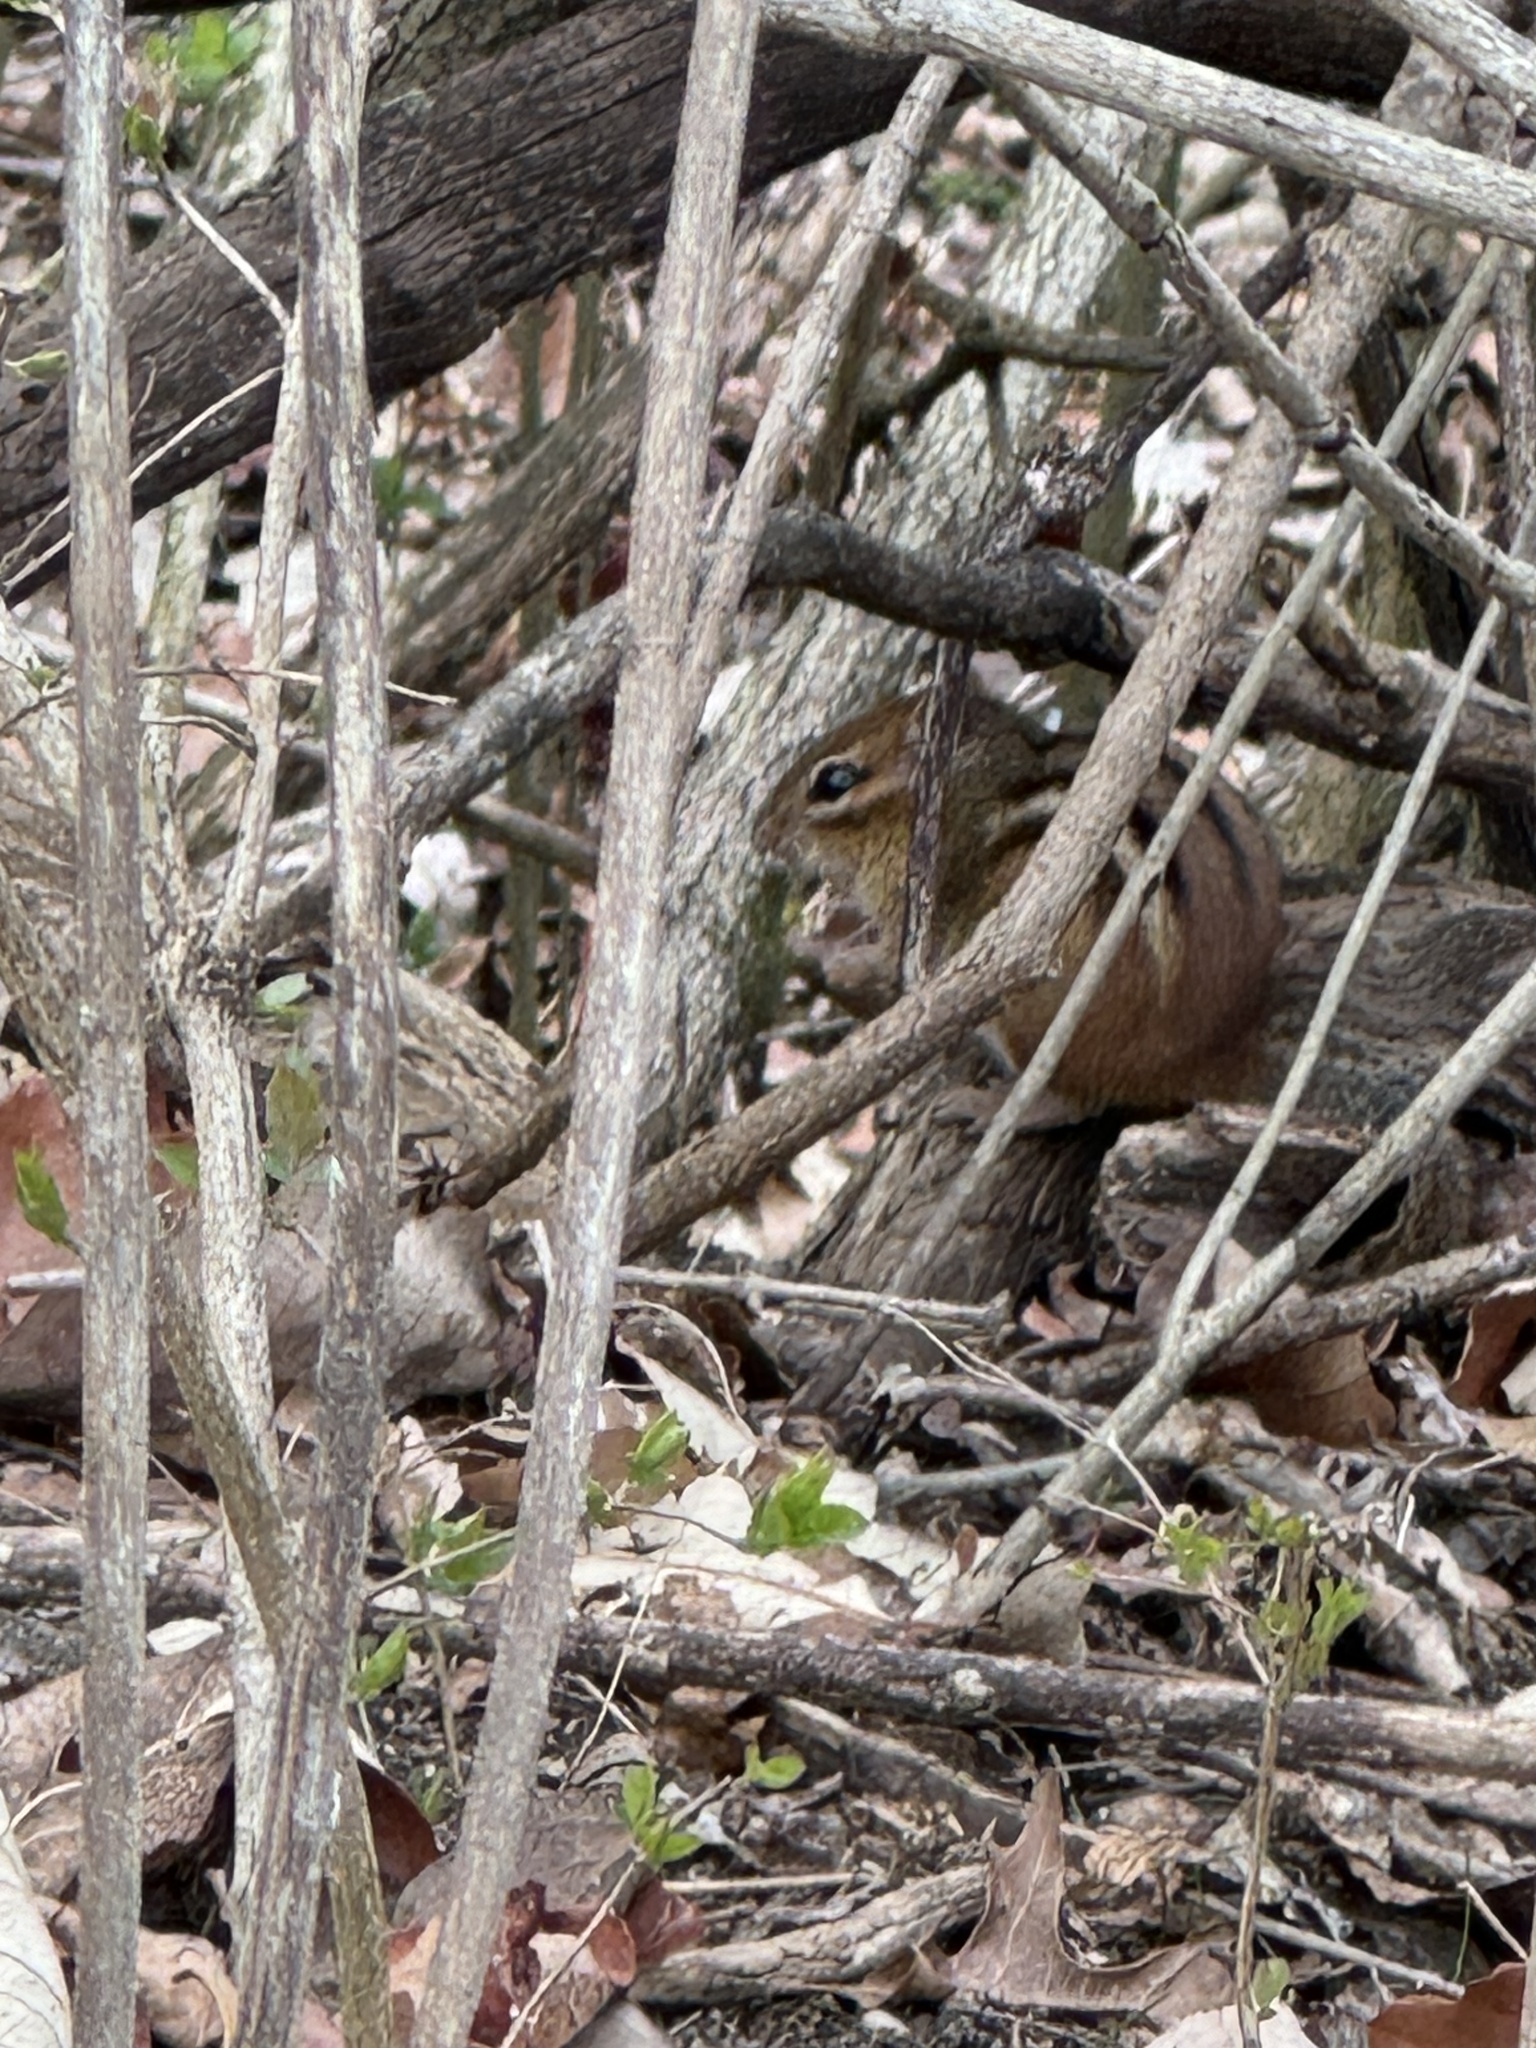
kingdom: Animalia
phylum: Chordata
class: Mammalia
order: Rodentia
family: Sciuridae
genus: Tamias
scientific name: Tamias striatus
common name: Eastern chipmunk
